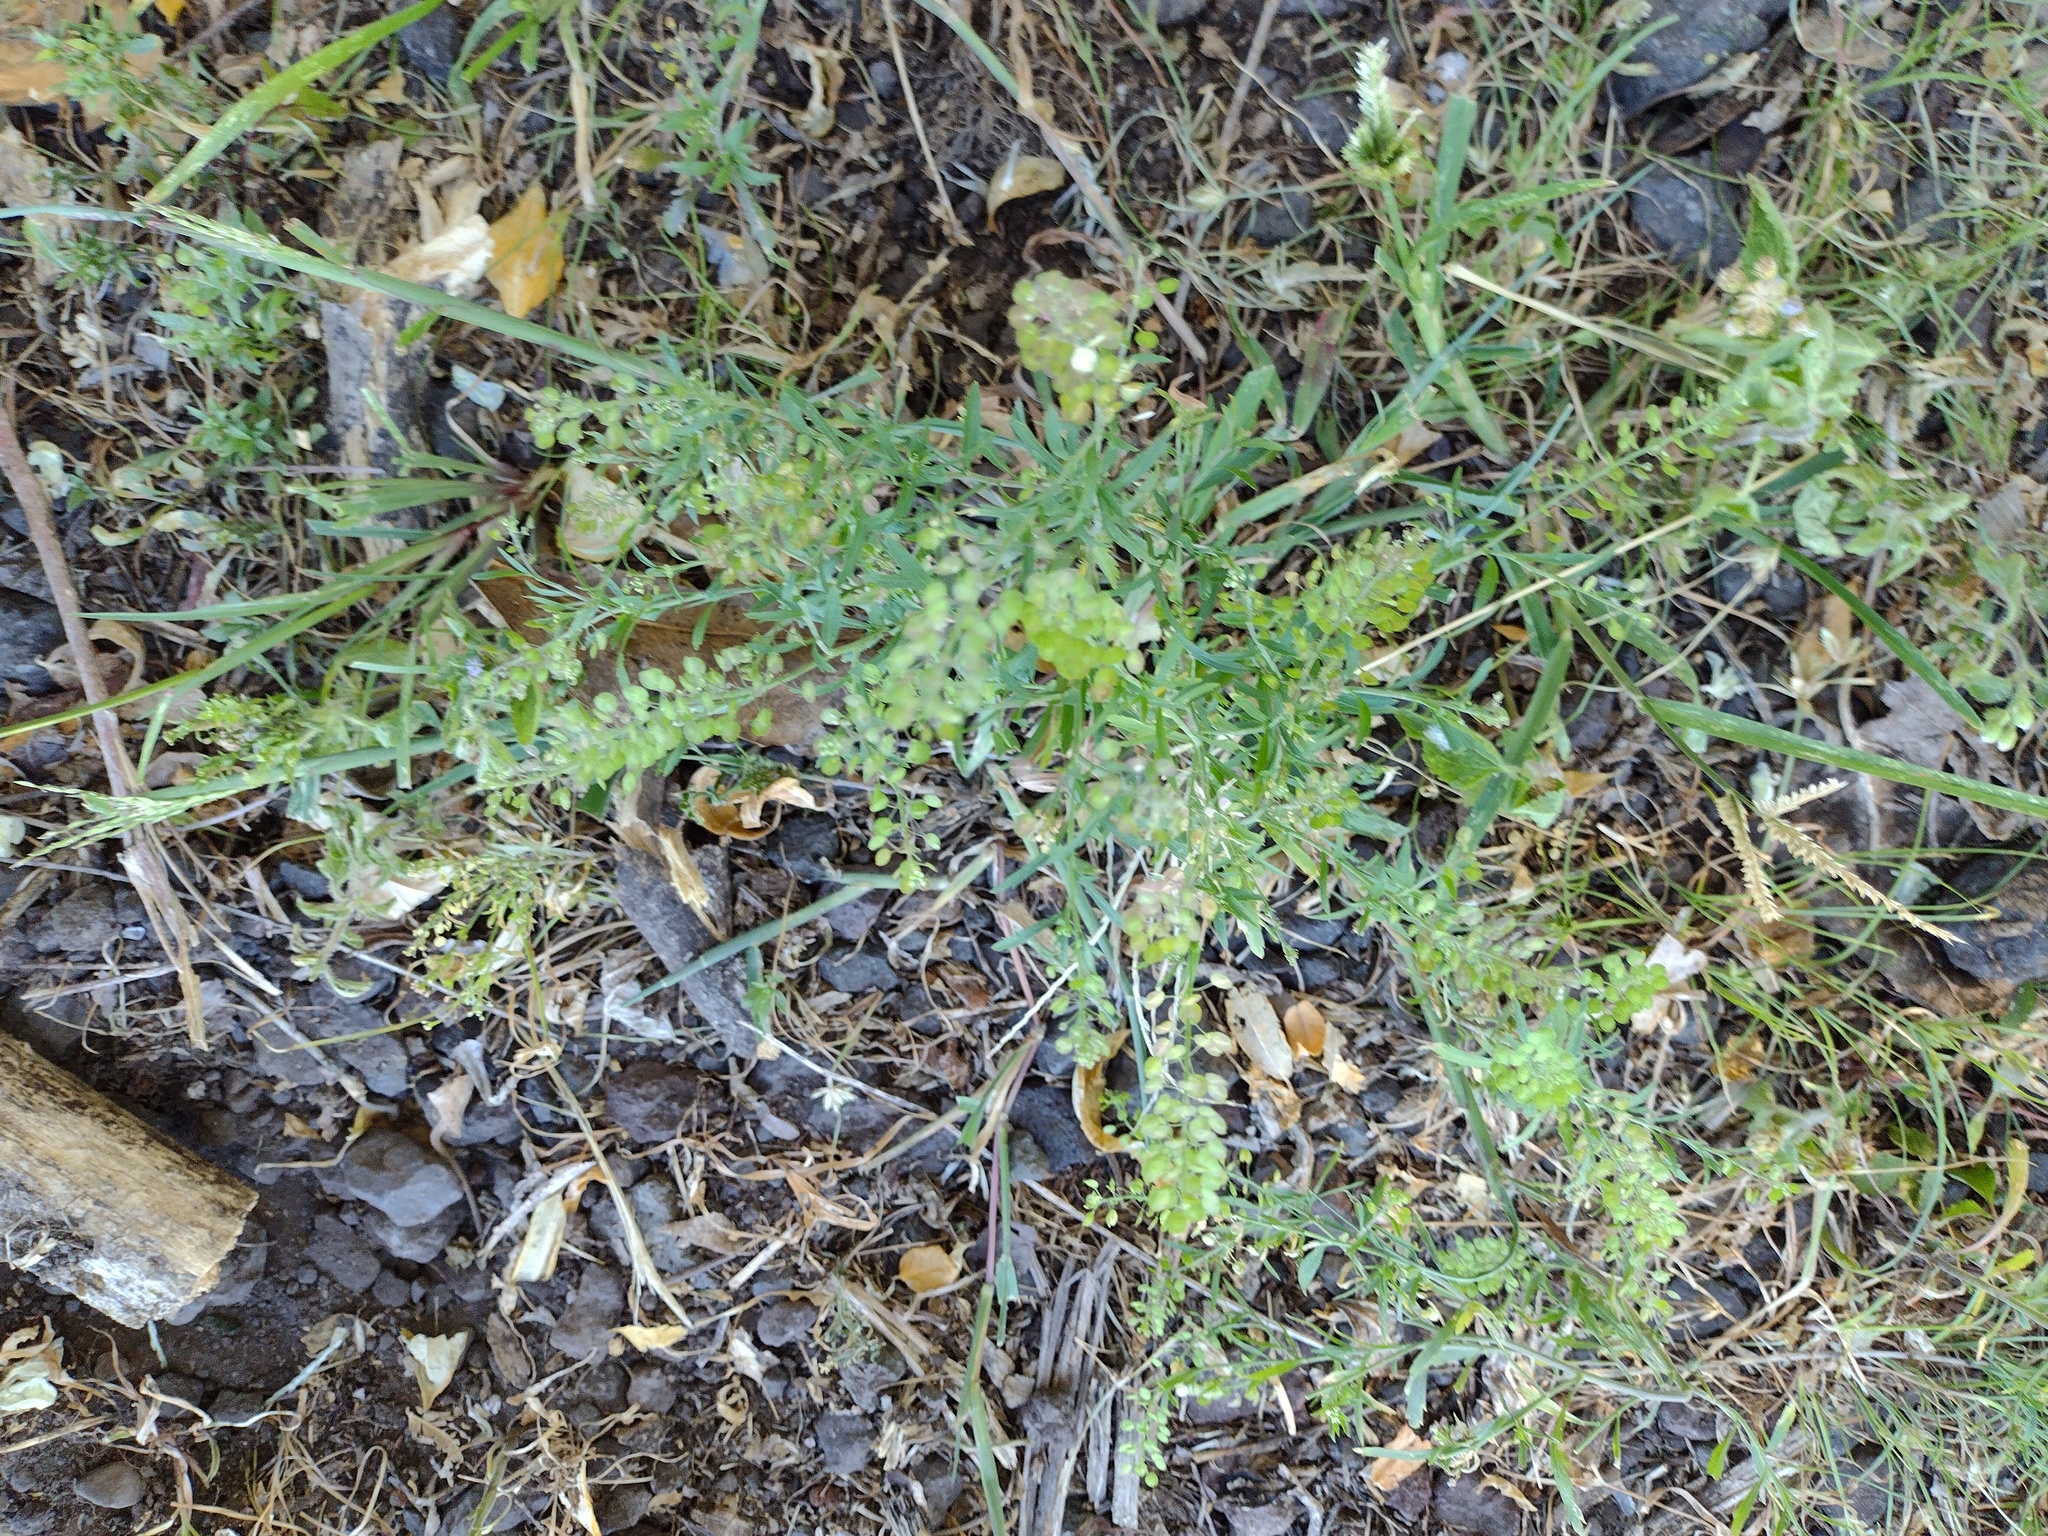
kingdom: Plantae
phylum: Tracheophyta
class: Magnoliopsida
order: Brassicales
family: Brassicaceae
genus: Lepidium
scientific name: Lepidium virginicum
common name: Least pepperwort
